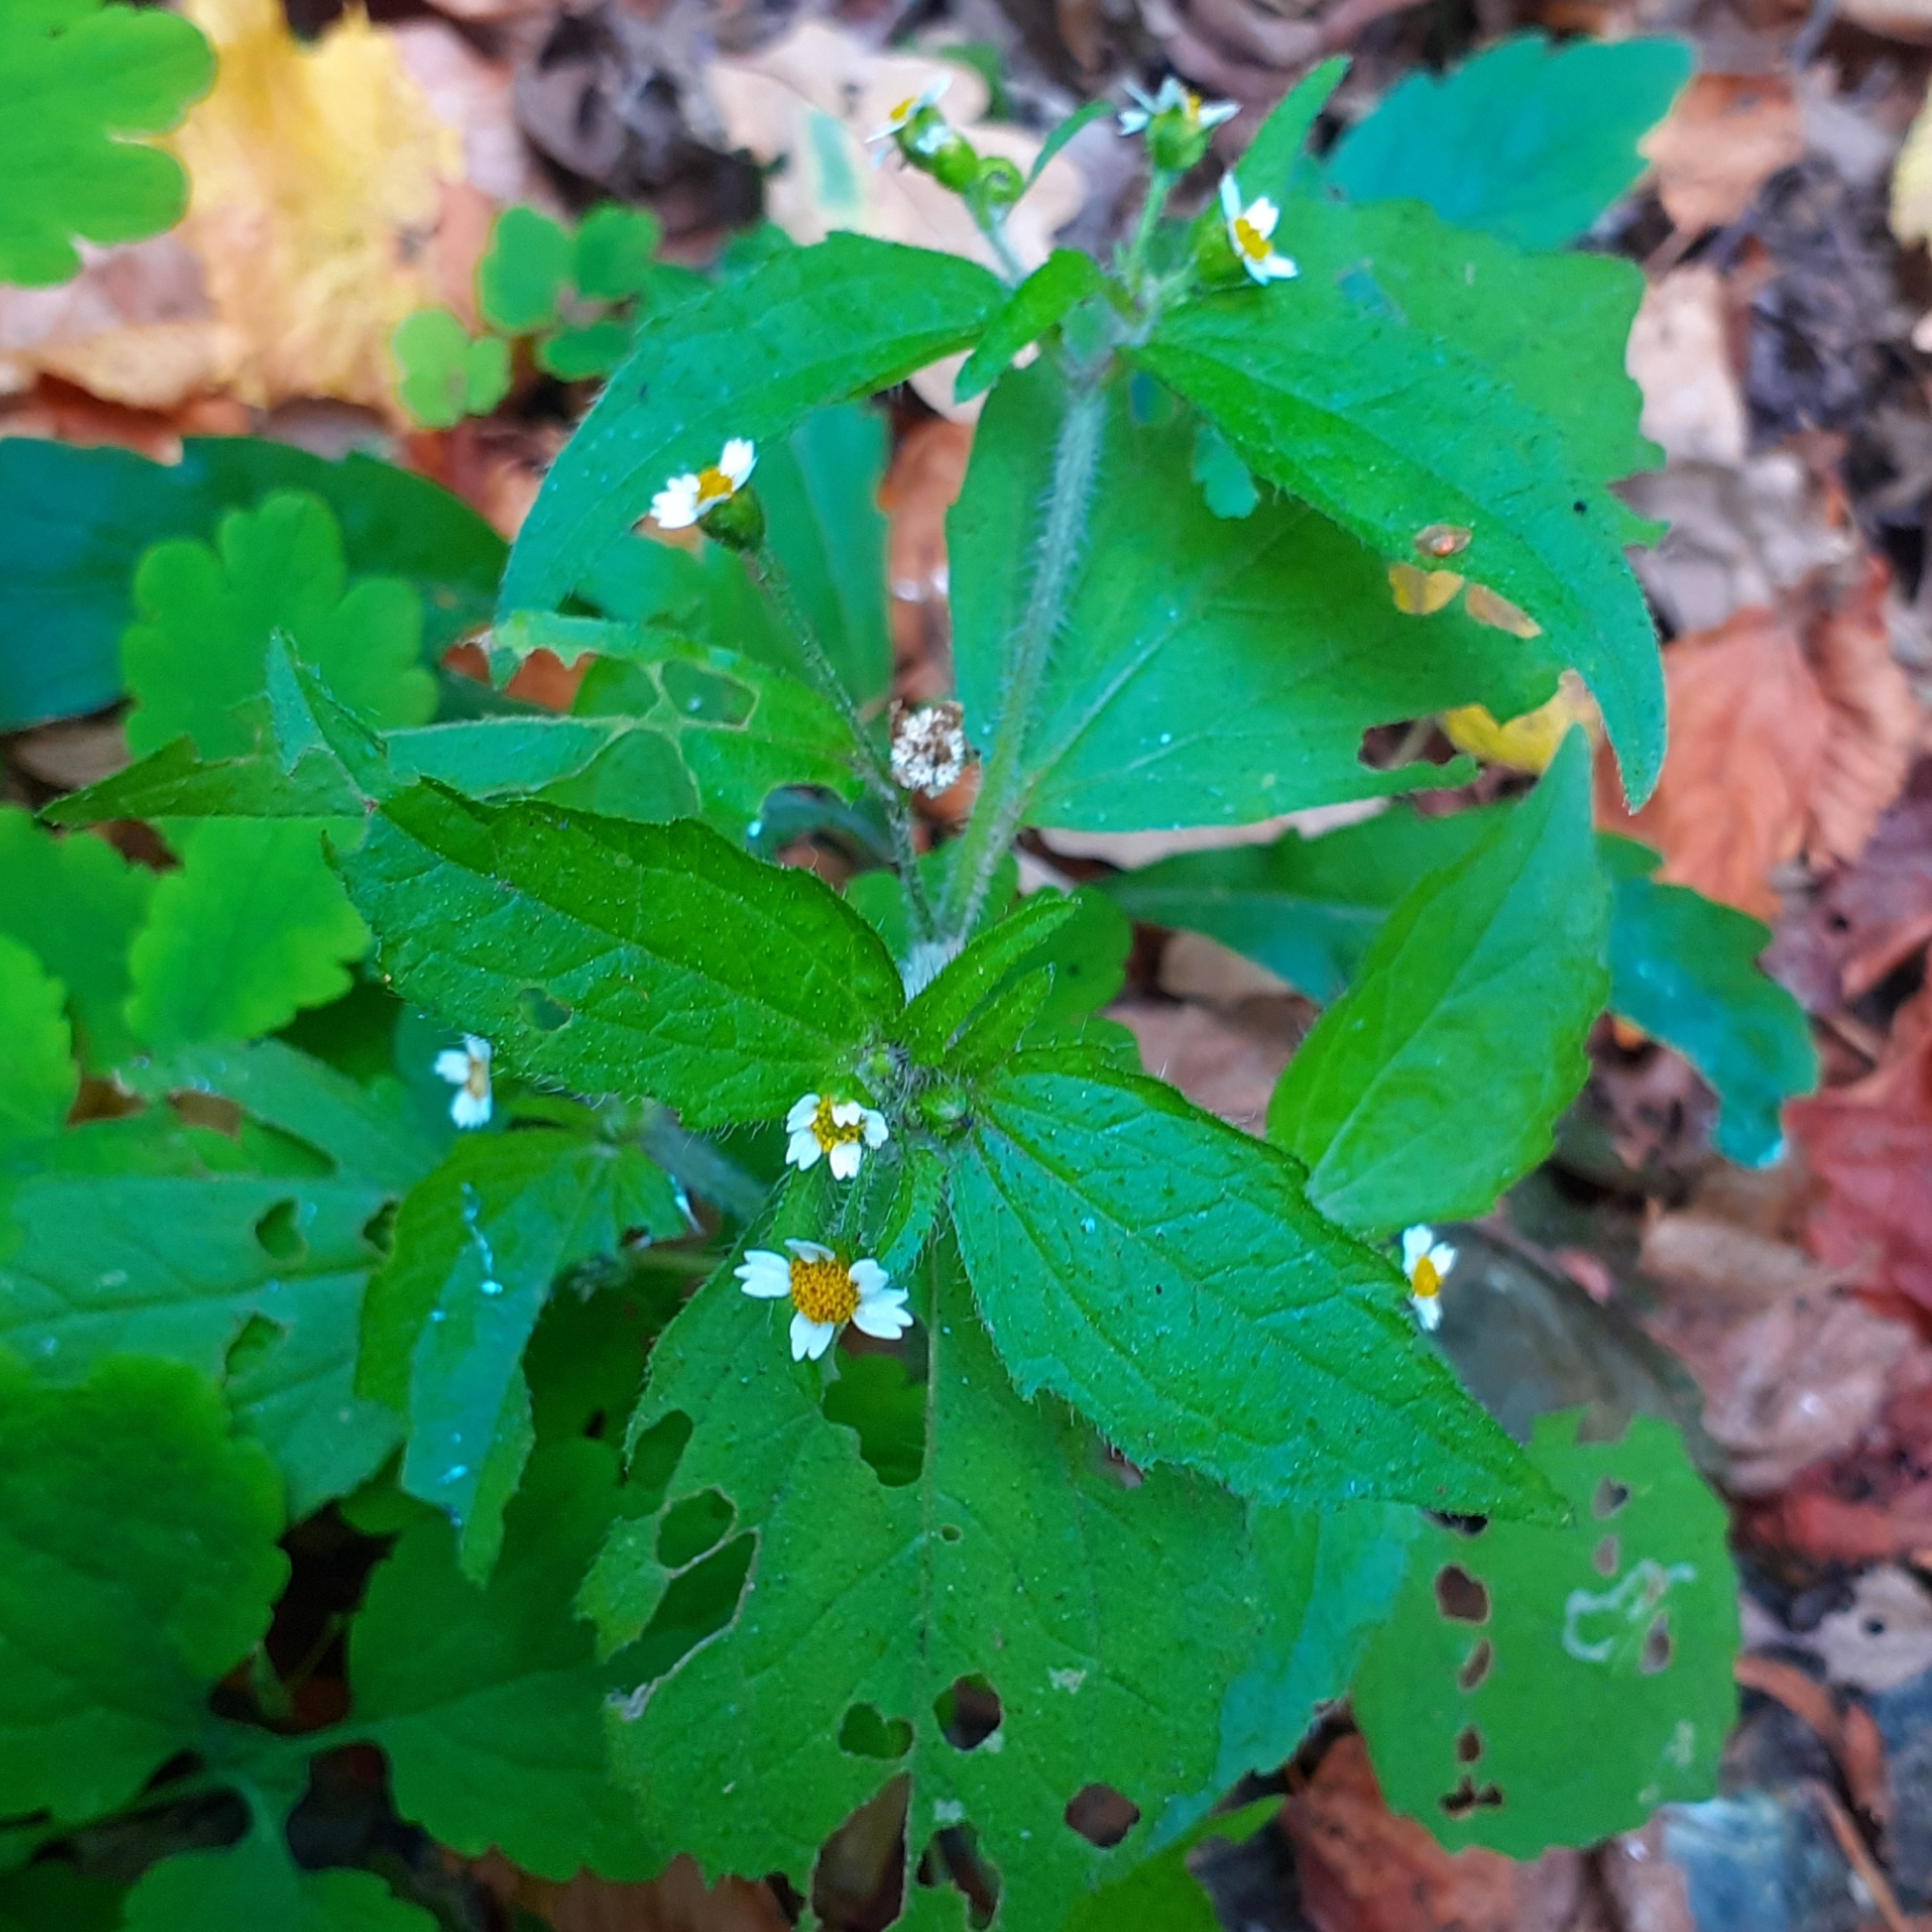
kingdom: Plantae
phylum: Tracheophyta
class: Magnoliopsida
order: Asterales
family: Asteraceae
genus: Galinsoga
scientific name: Galinsoga quadriradiata
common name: Shaggy soldier
